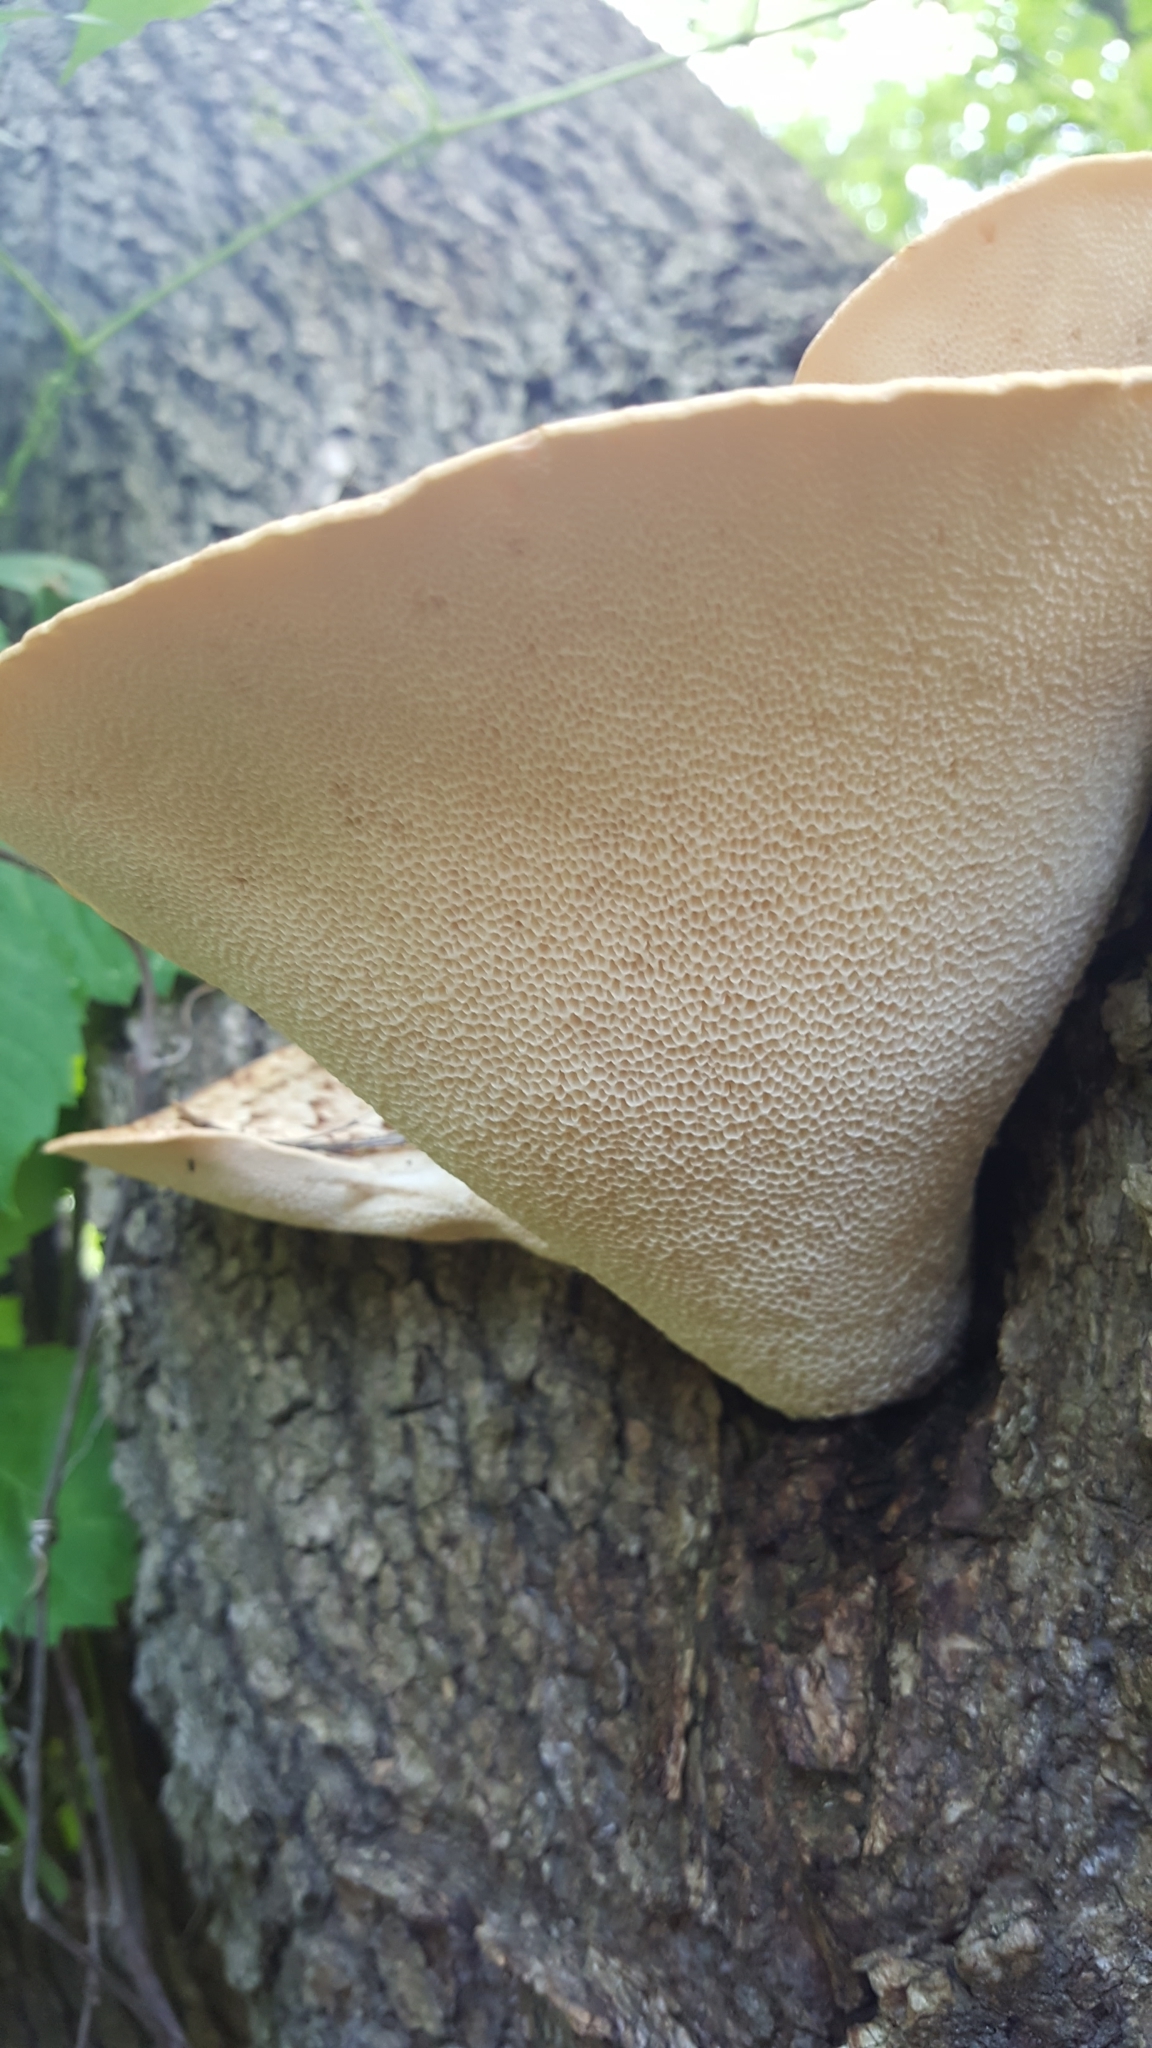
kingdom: Fungi
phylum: Basidiomycota
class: Agaricomycetes
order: Polyporales
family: Polyporaceae
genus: Cerioporus
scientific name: Cerioporus squamosus
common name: Dryad's saddle
